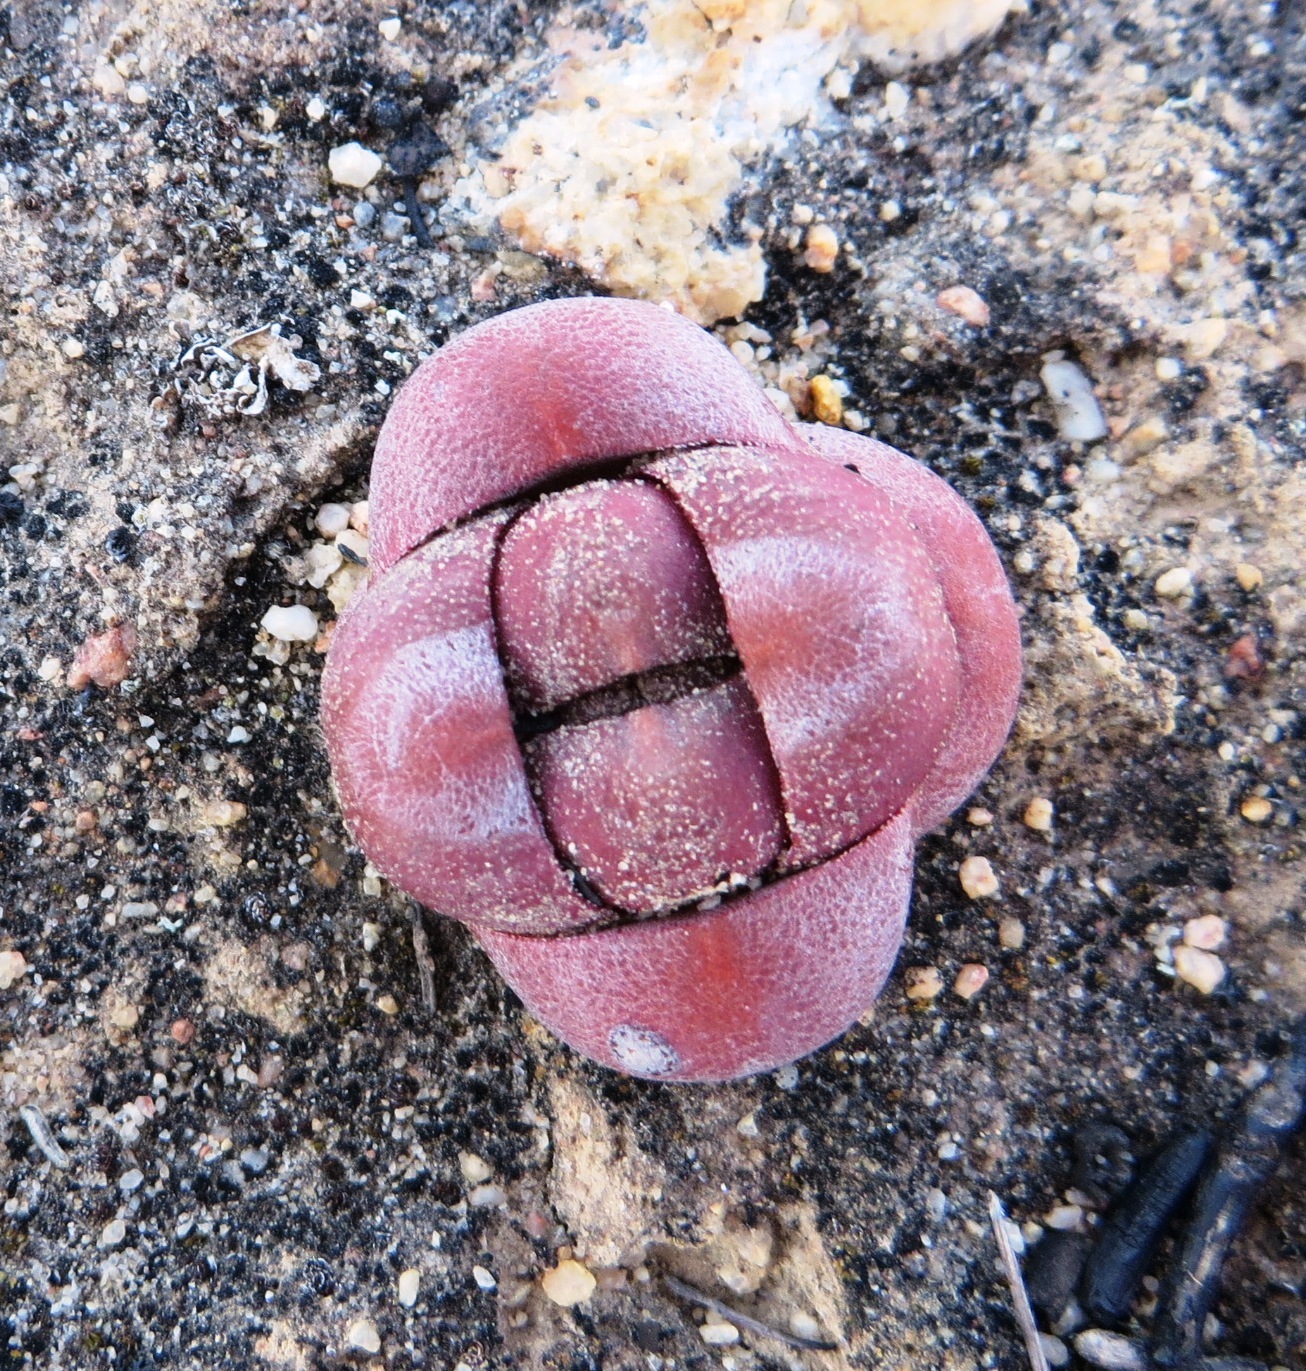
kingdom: Plantae
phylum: Tracheophyta
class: Magnoliopsida
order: Saxifragales
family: Crassulaceae
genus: Crassula
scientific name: Crassula columnaris
